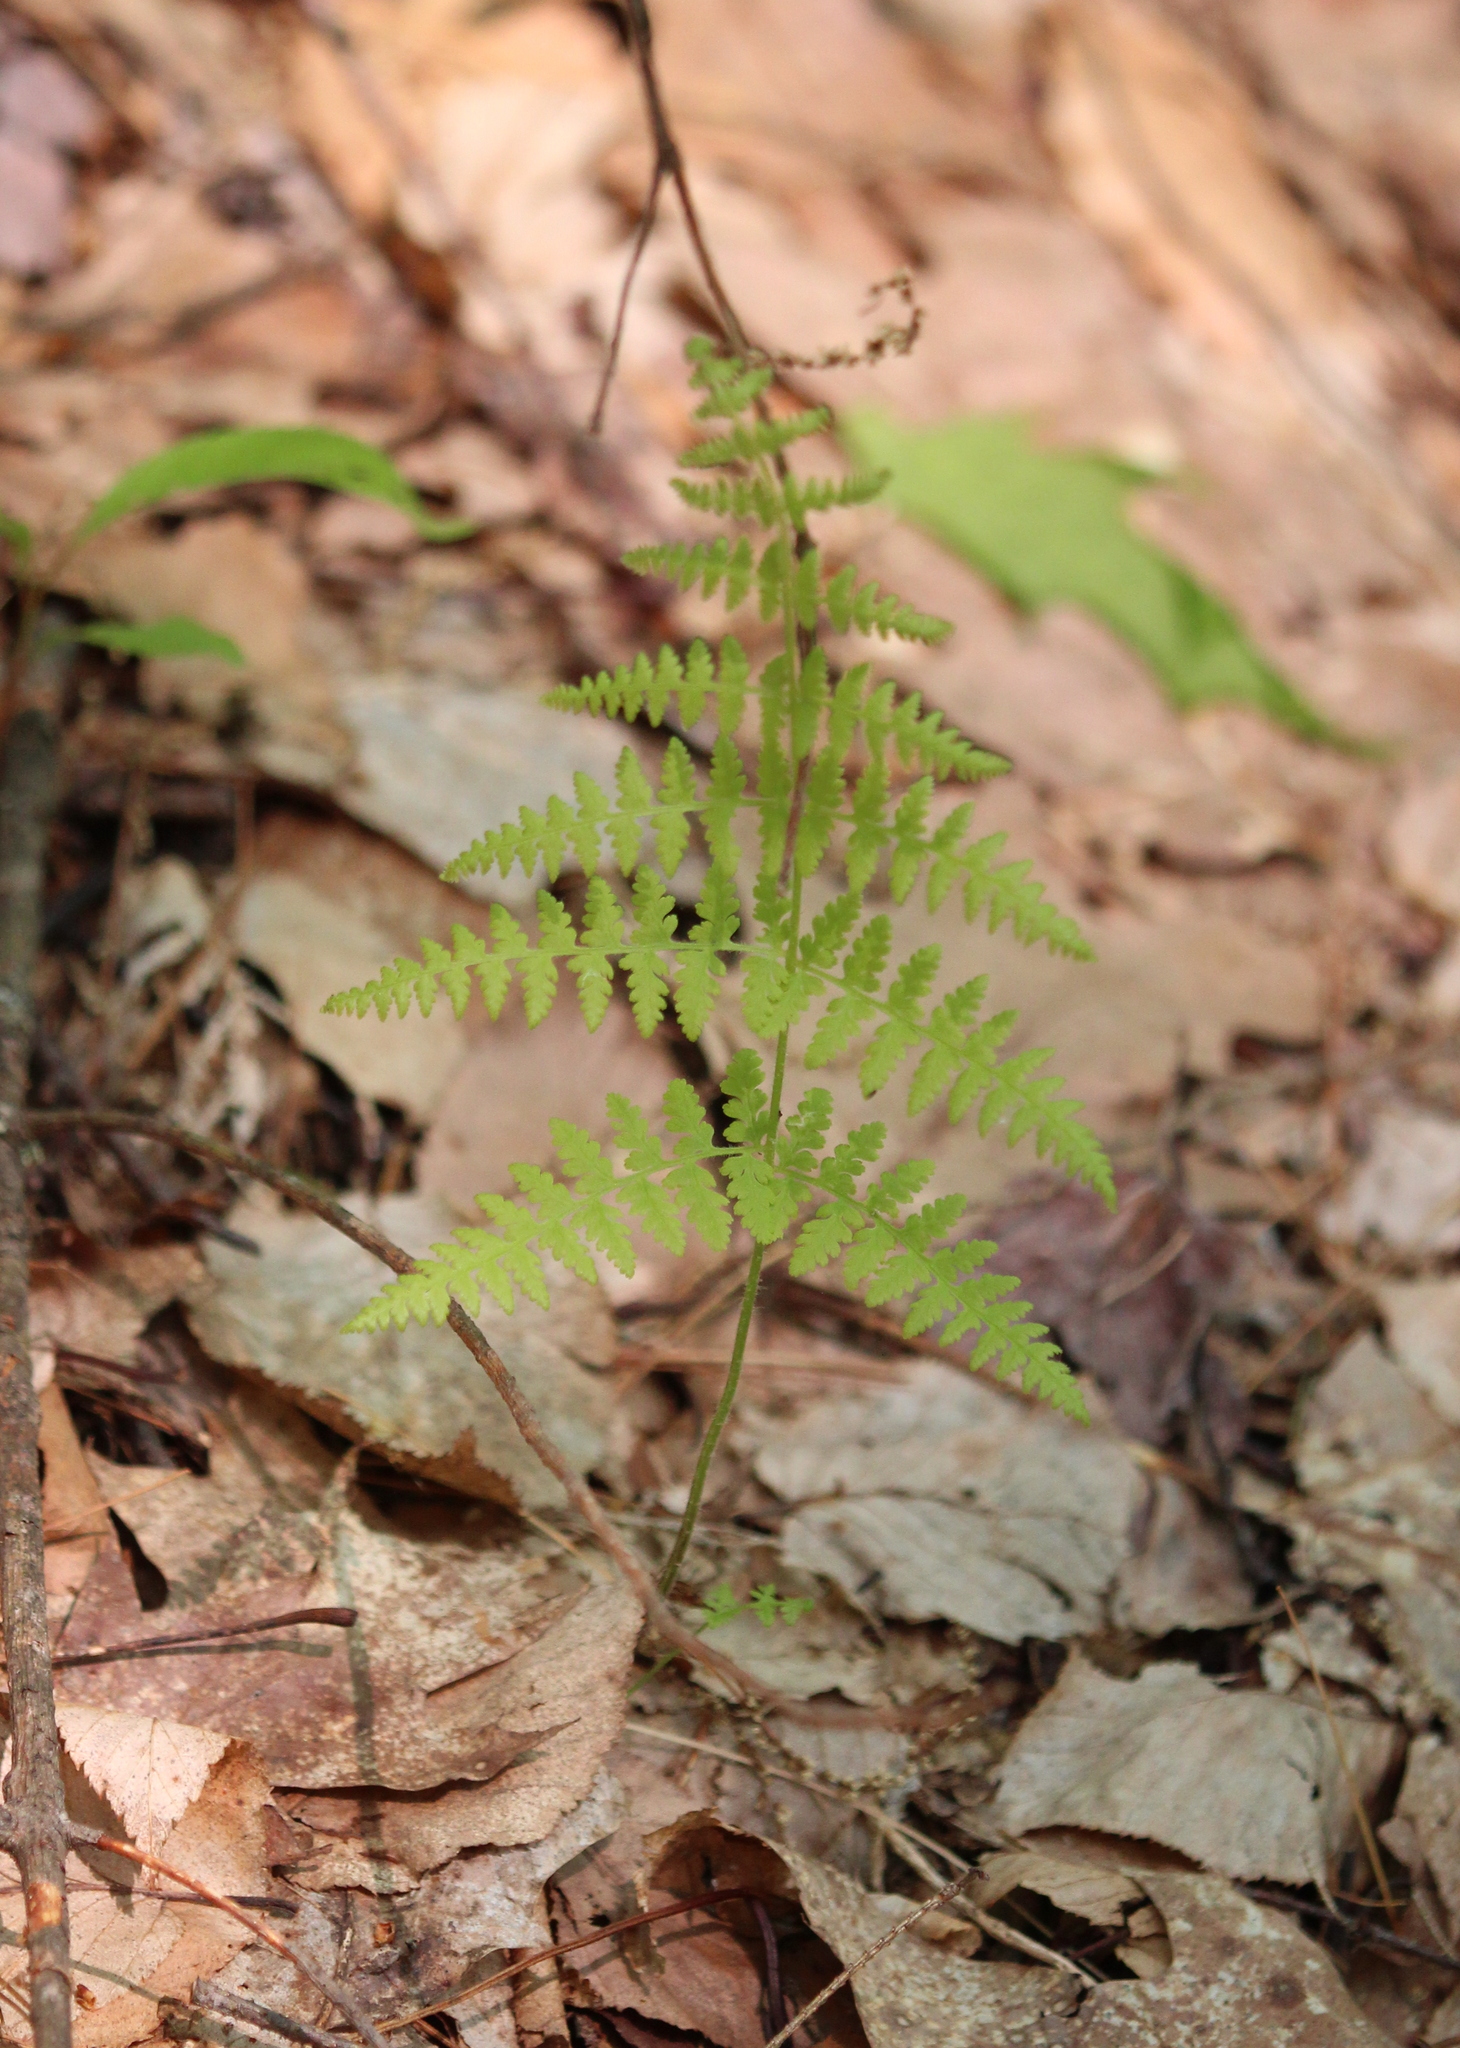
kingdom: Plantae
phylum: Tracheophyta
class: Polypodiopsida
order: Polypodiales
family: Dennstaedtiaceae
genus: Sitobolium
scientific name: Sitobolium punctilobum
